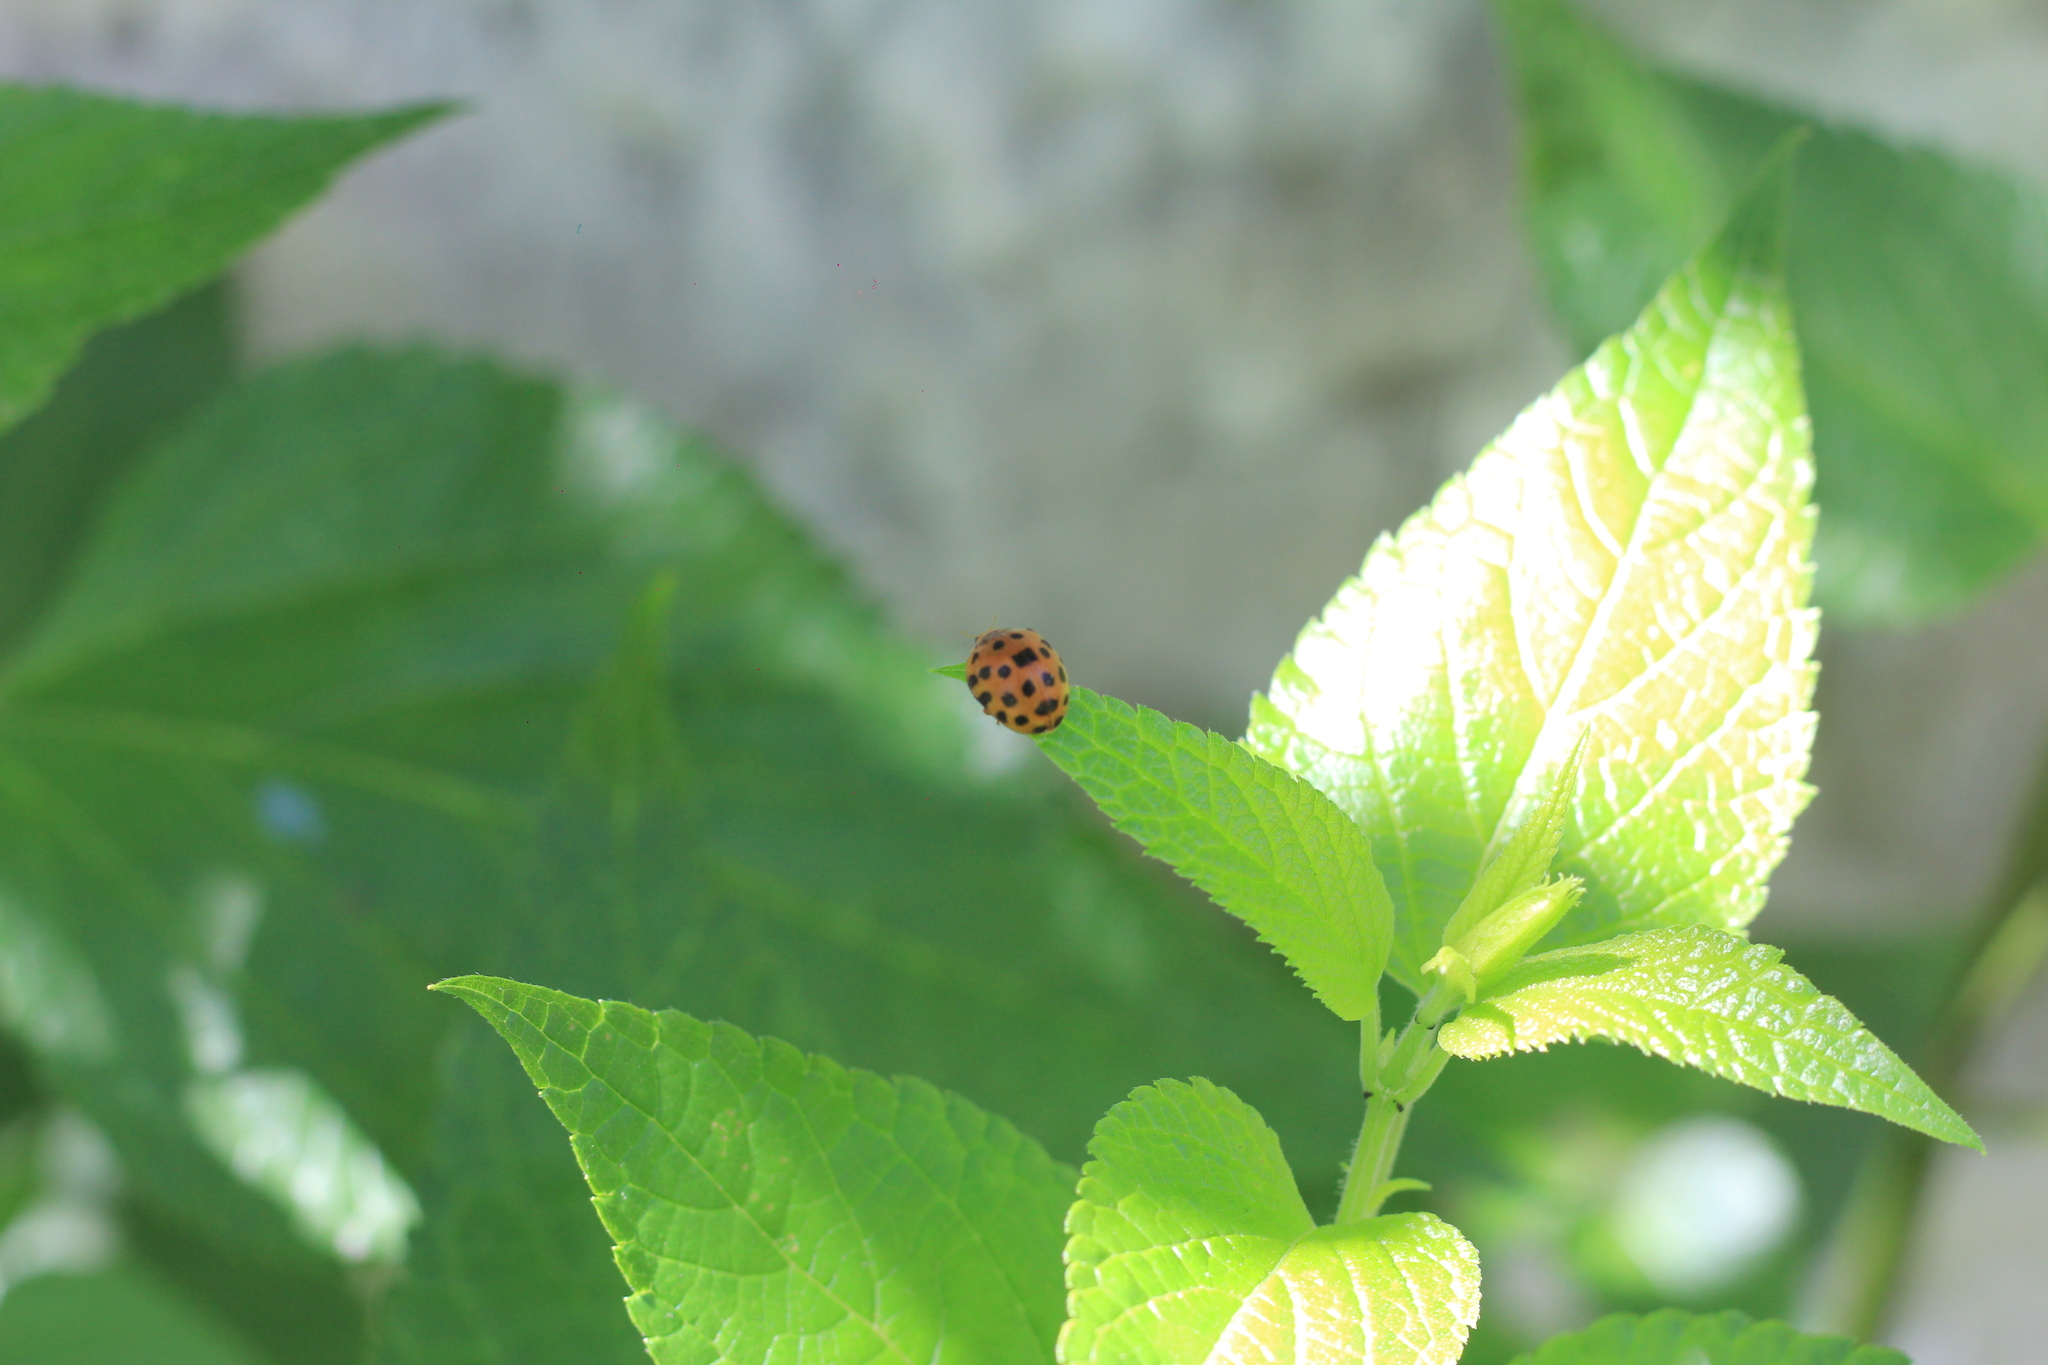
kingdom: Animalia
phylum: Arthropoda
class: Insecta
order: Coleoptera
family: Coccinellidae
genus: Henosepilachna
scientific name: Henosepilachna vigintioctopunctata
